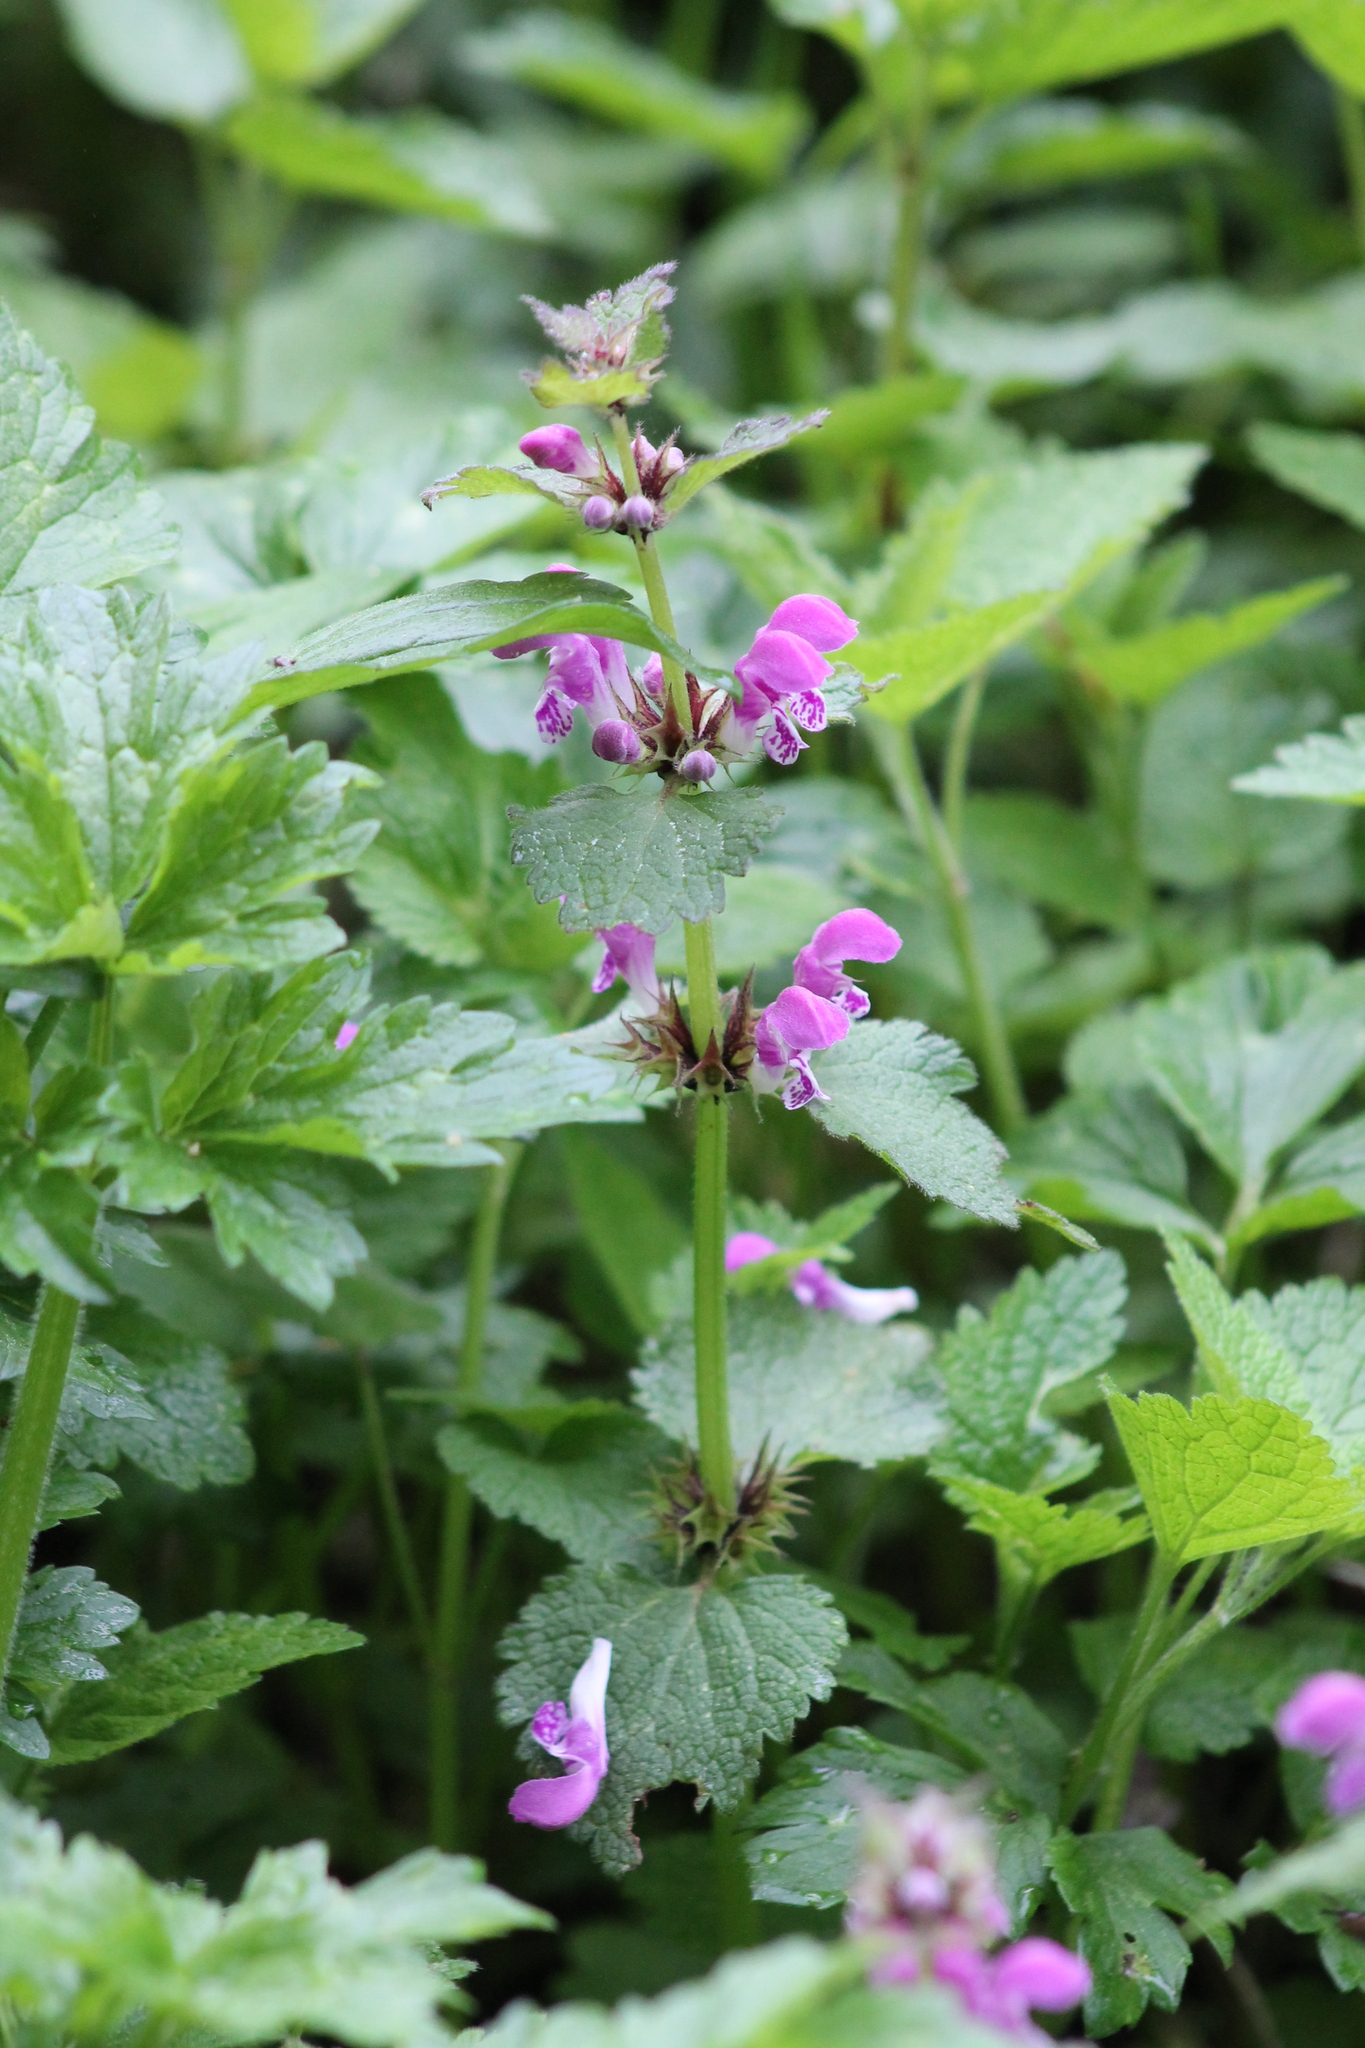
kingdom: Plantae
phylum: Tracheophyta
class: Magnoliopsida
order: Lamiales
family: Lamiaceae
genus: Lamium
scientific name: Lamium maculatum
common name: Spotted dead-nettle
